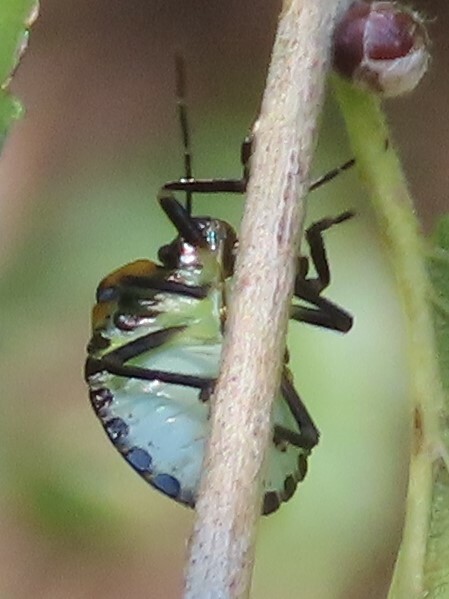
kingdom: Animalia
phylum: Arthropoda
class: Insecta
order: Hemiptera
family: Pentatomidae
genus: Chinavia
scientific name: Chinavia hilaris
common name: Green stink bug
